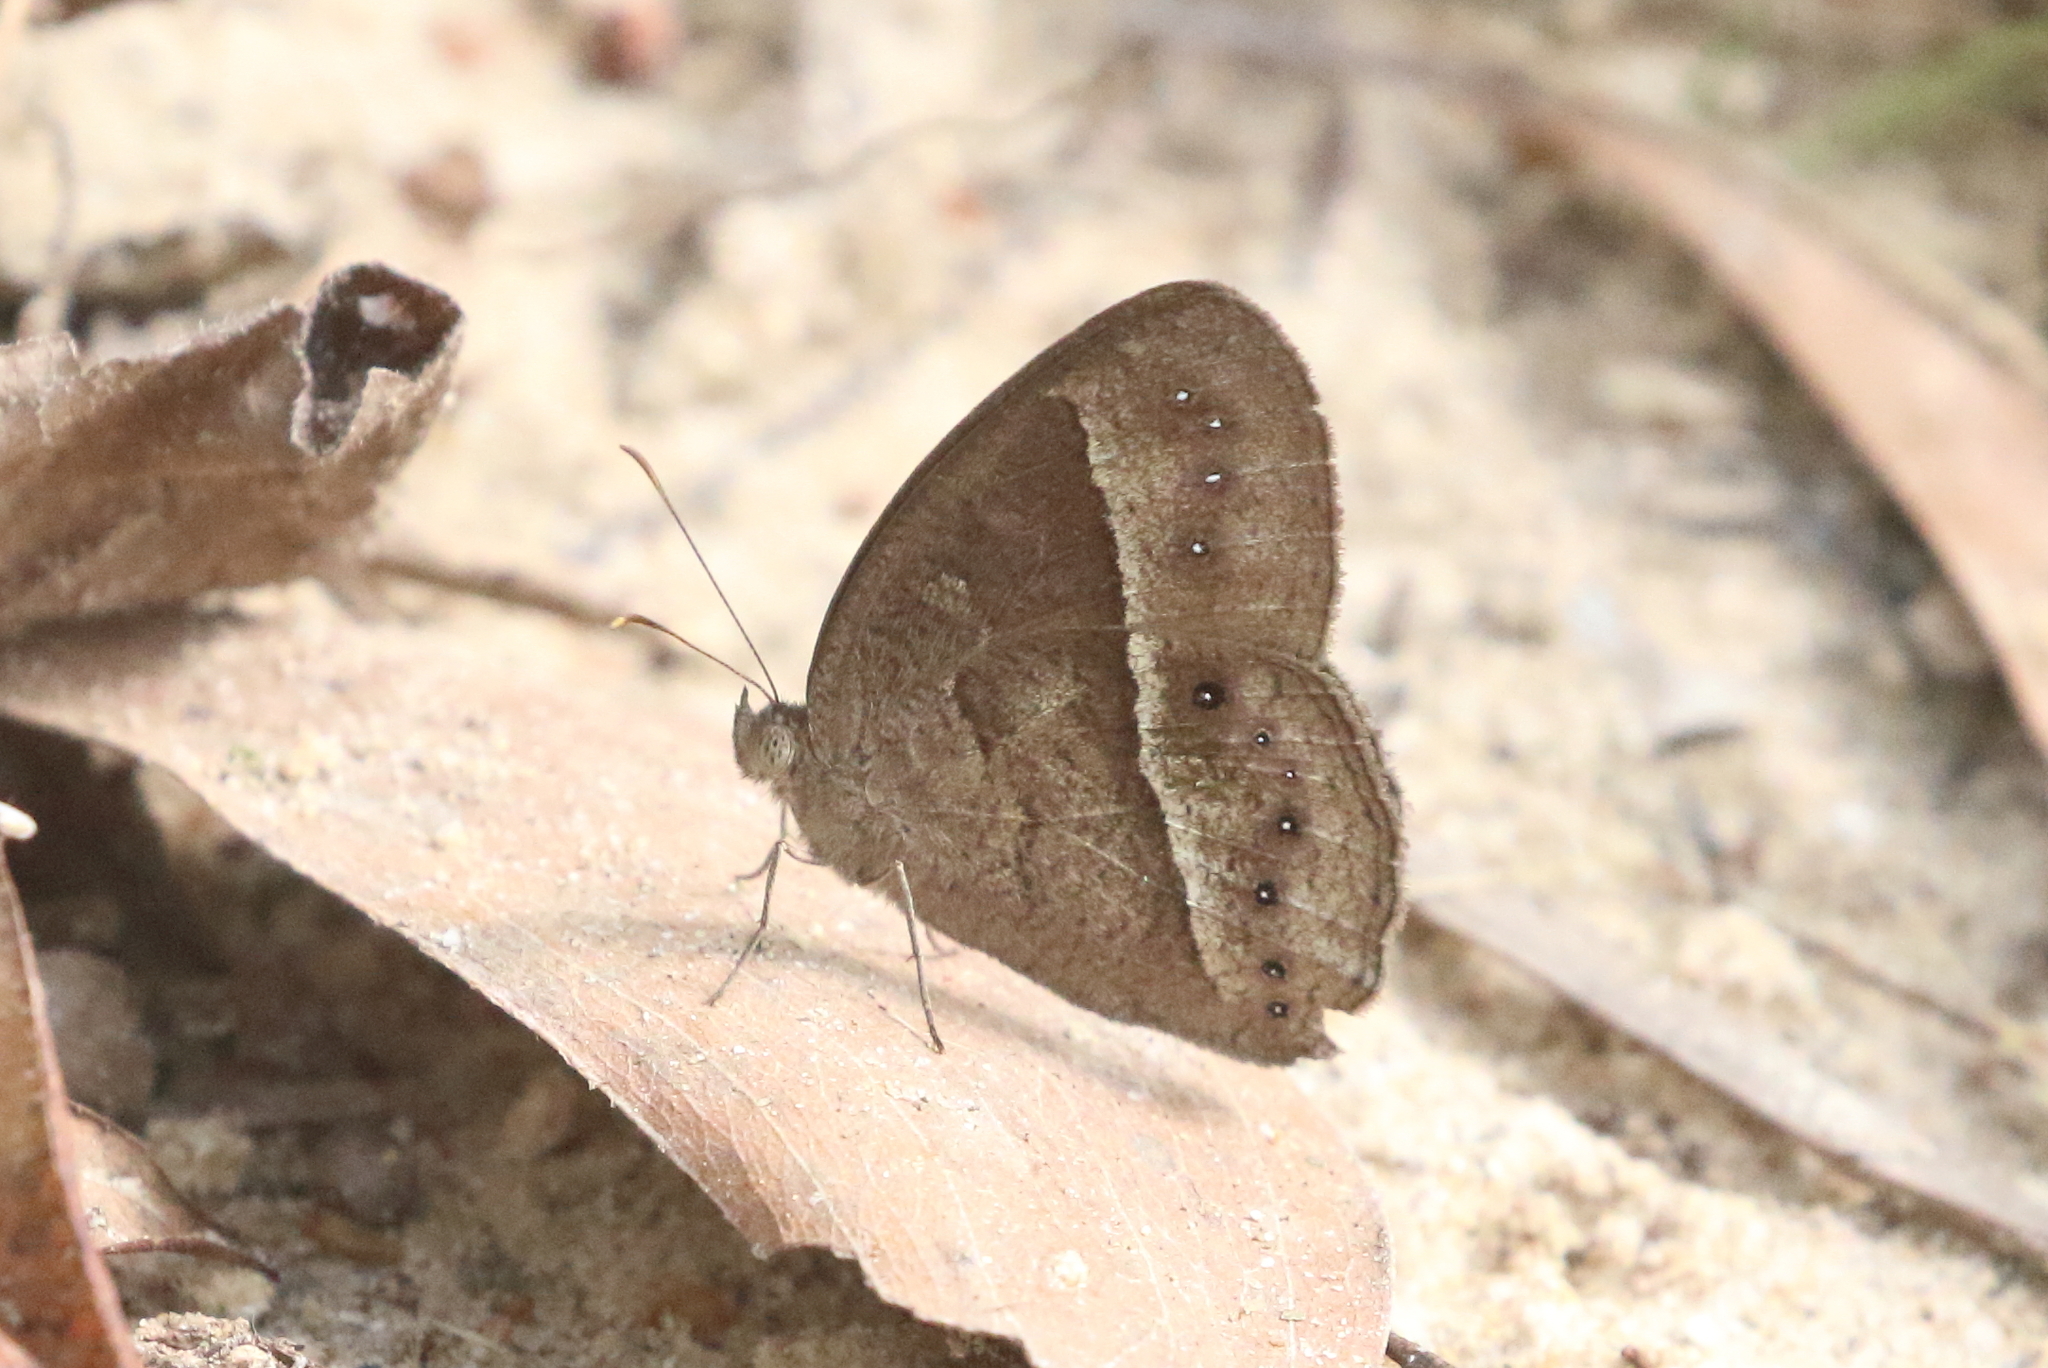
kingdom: Animalia
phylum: Arthropoda
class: Insecta
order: Lepidoptera
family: Nymphalidae
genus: Mycalesis
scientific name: Mycalesis perseus
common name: Dingy bushbrown
